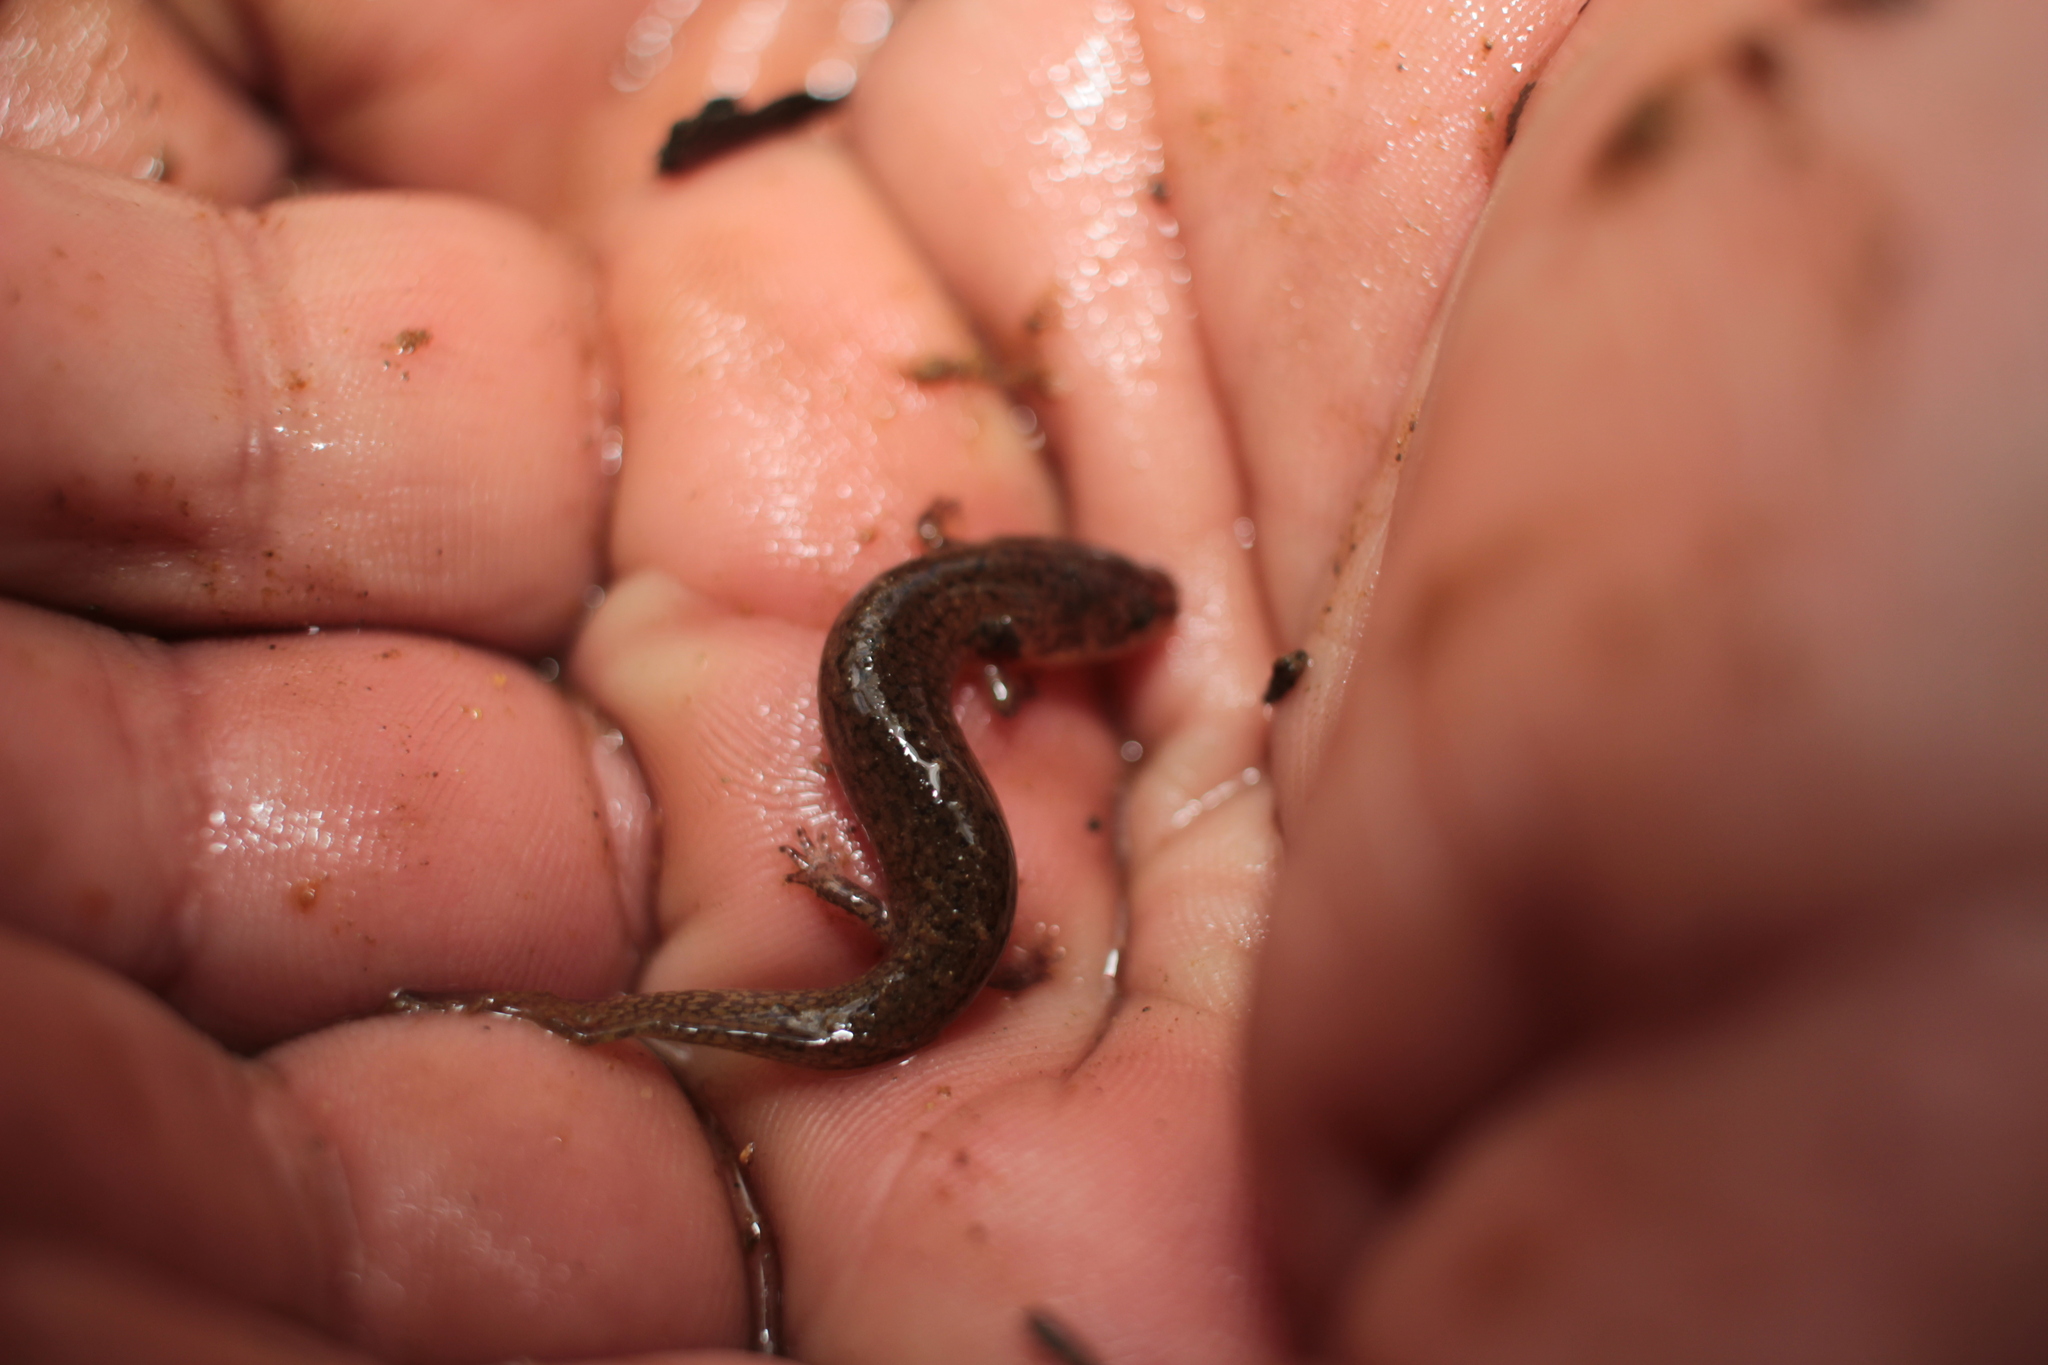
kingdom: Animalia
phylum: Chordata
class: Amphibia
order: Caudata
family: Plethodontidae
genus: Pseudotriton
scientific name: Pseudotriton ruber
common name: Red salamander
